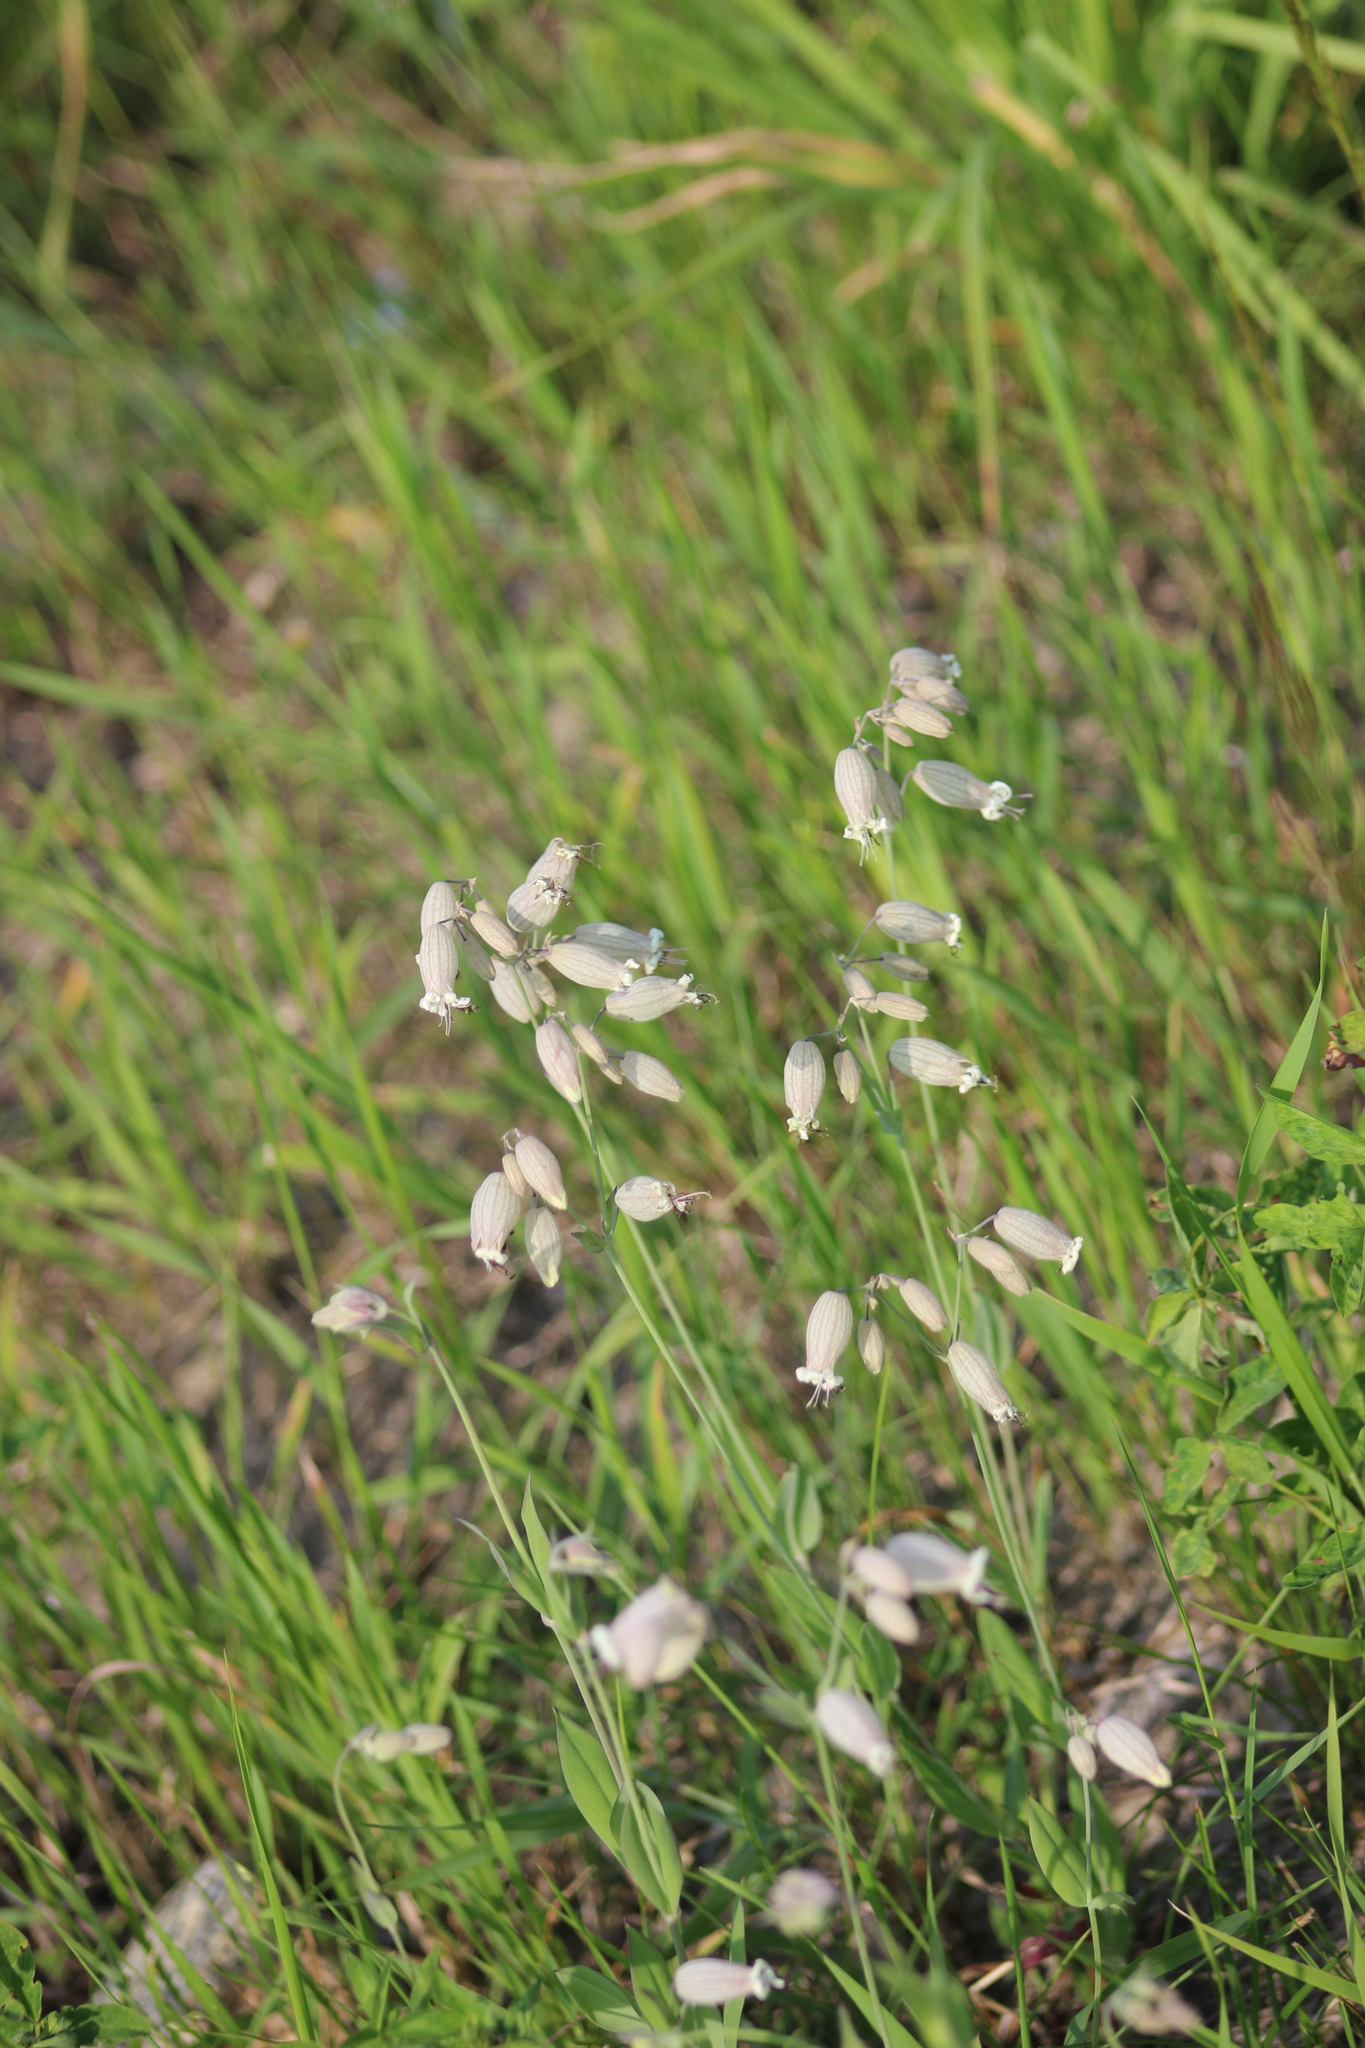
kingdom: Plantae
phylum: Tracheophyta
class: Magnoliopsida
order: Caryophyllales
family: Caryophyllaceae
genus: Silene
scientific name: Silene vulgaris
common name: Bladder campion
